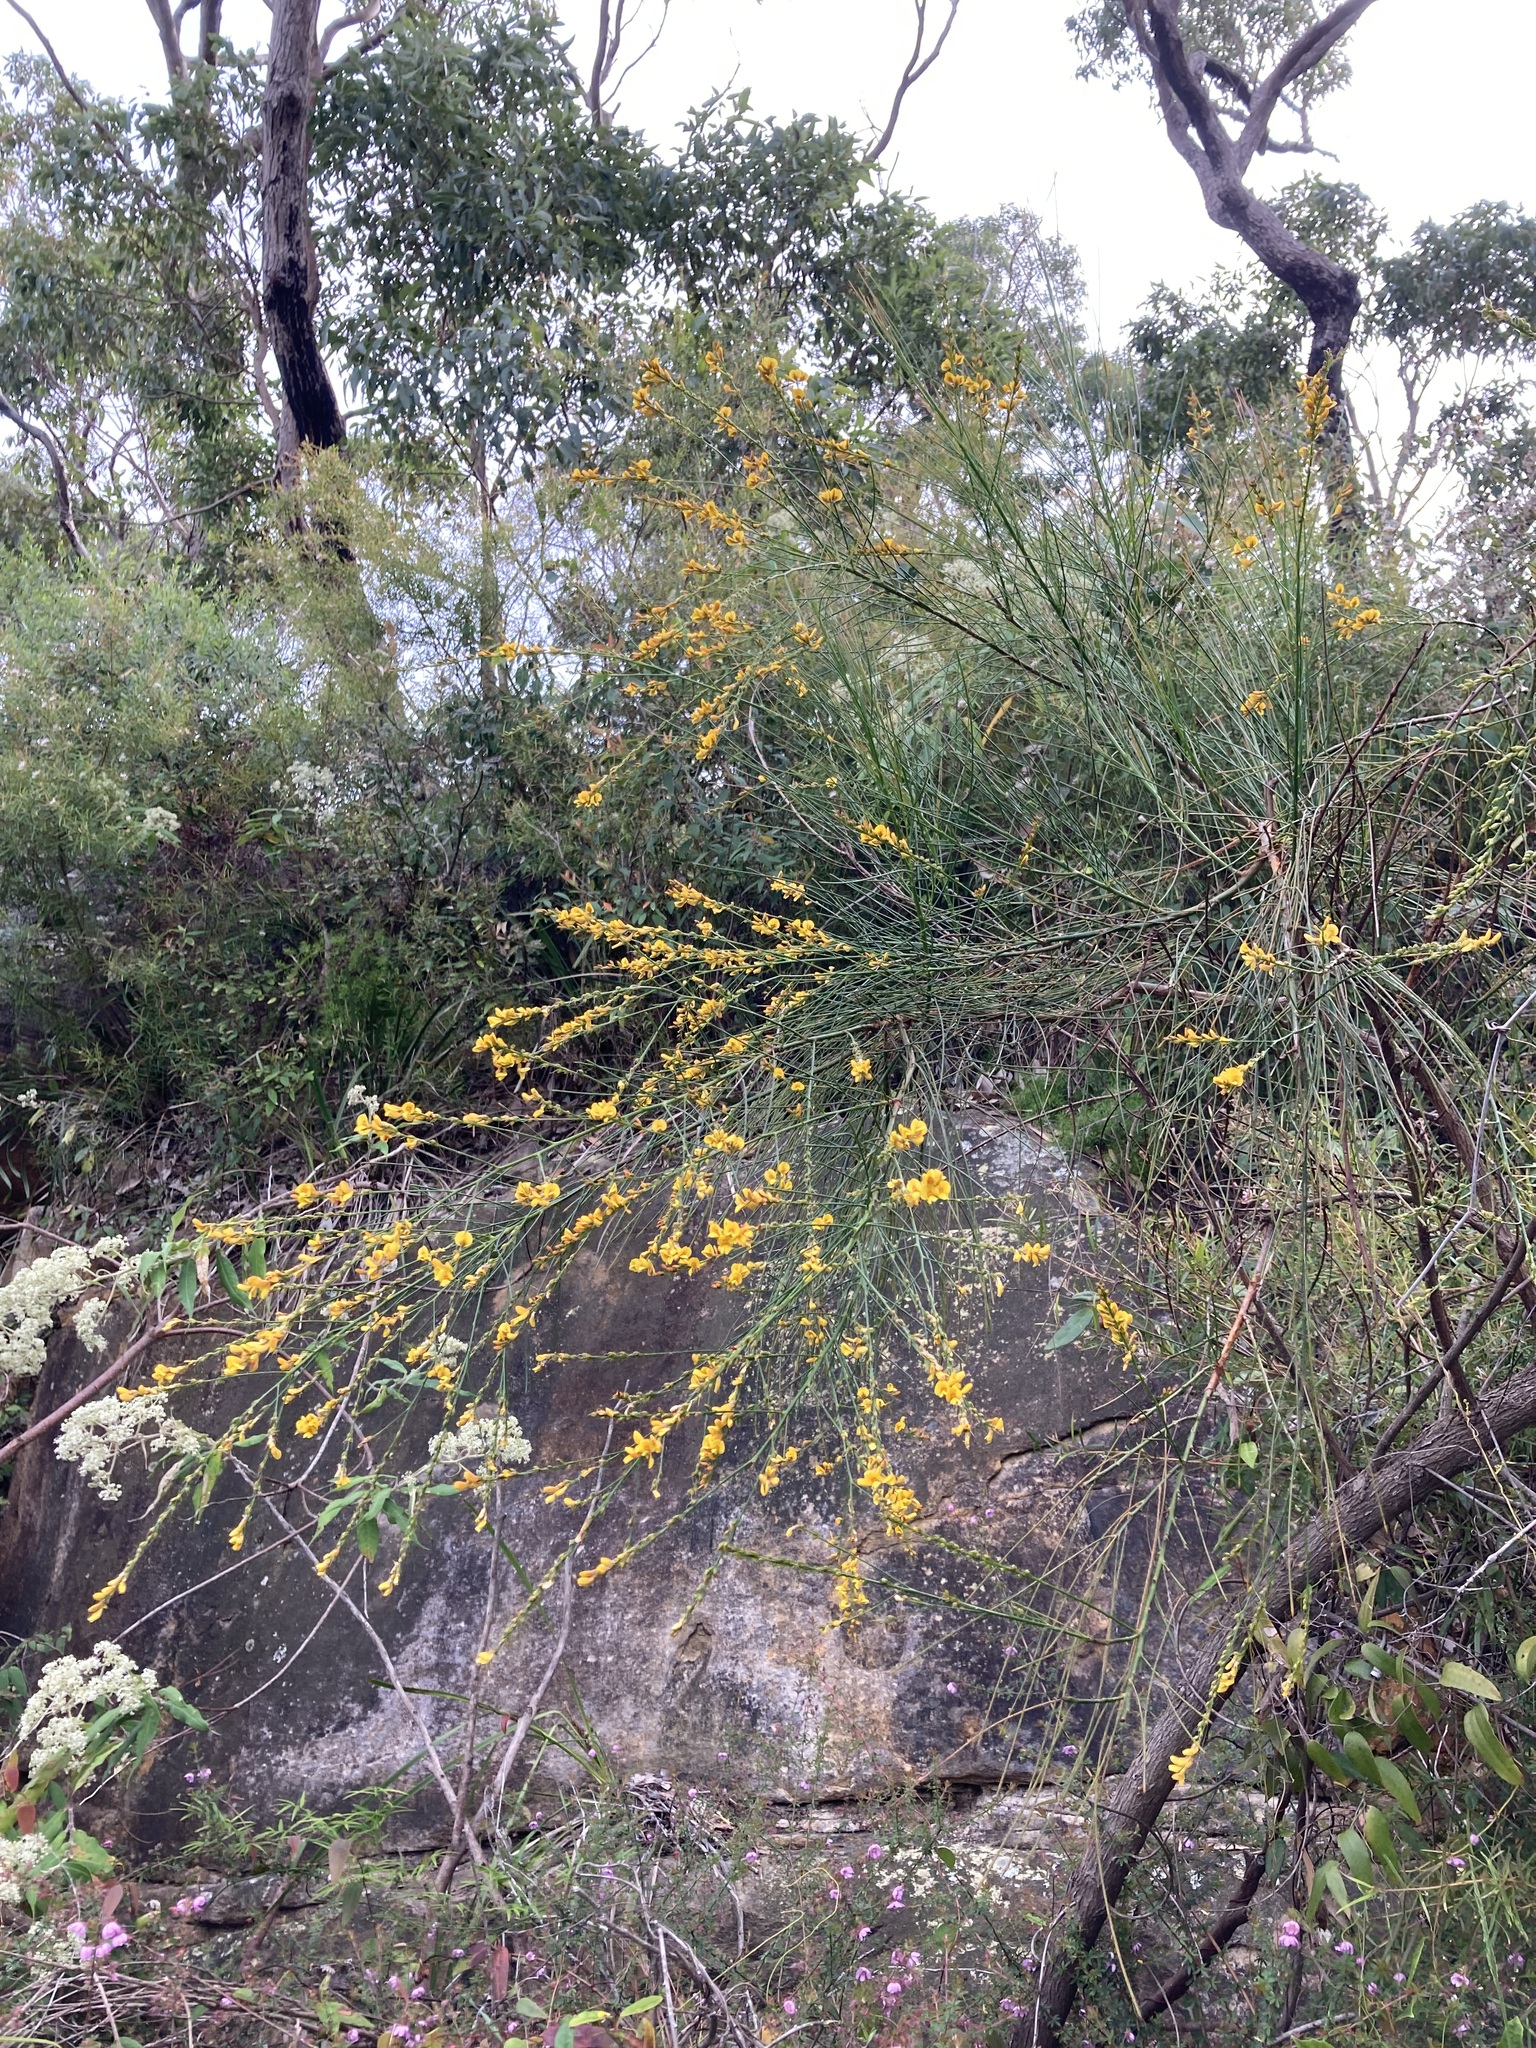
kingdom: Plantae
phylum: Tracheophyta
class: Magnoliopsida
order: Fabales
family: Fabaceae
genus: Viminaria
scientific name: Viminaria juncea
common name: Golden spray
